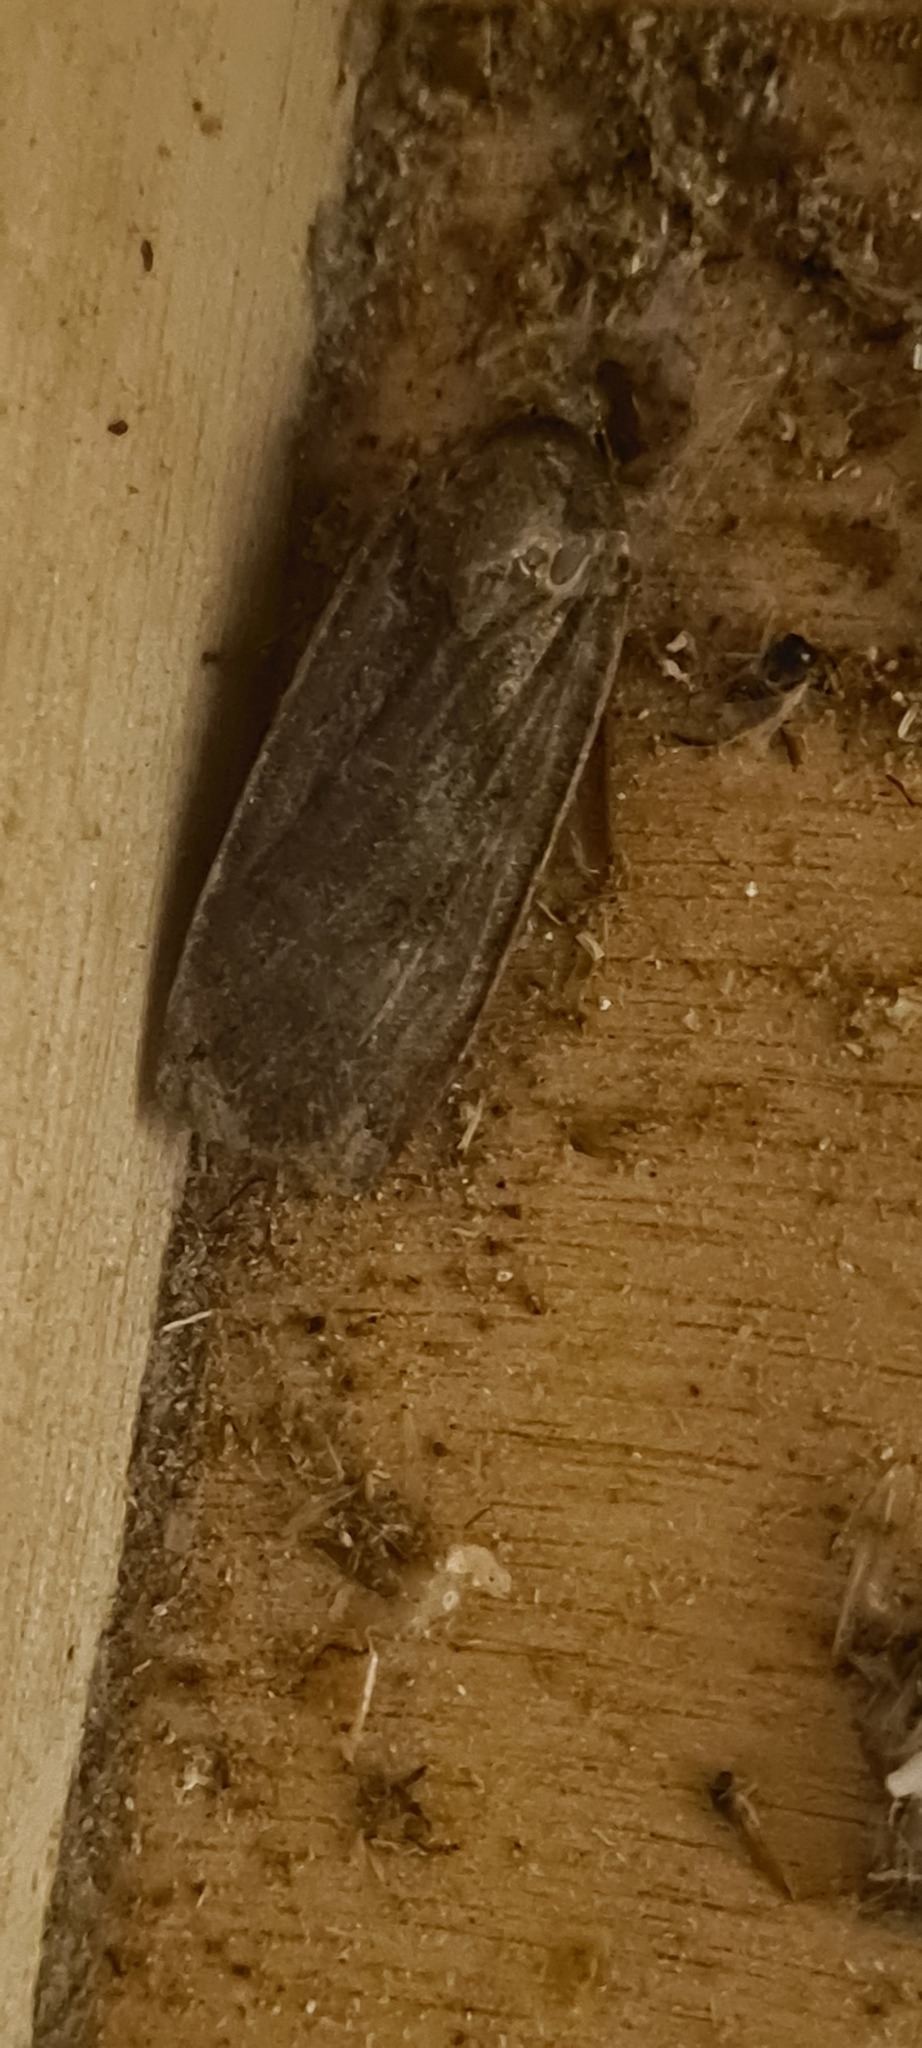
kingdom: Animalia
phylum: Arthropoda
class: Insecta
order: Lepidoptera
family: Noctuidae
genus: Noctua
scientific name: Noctua pronuba
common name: Large yellow underwing
